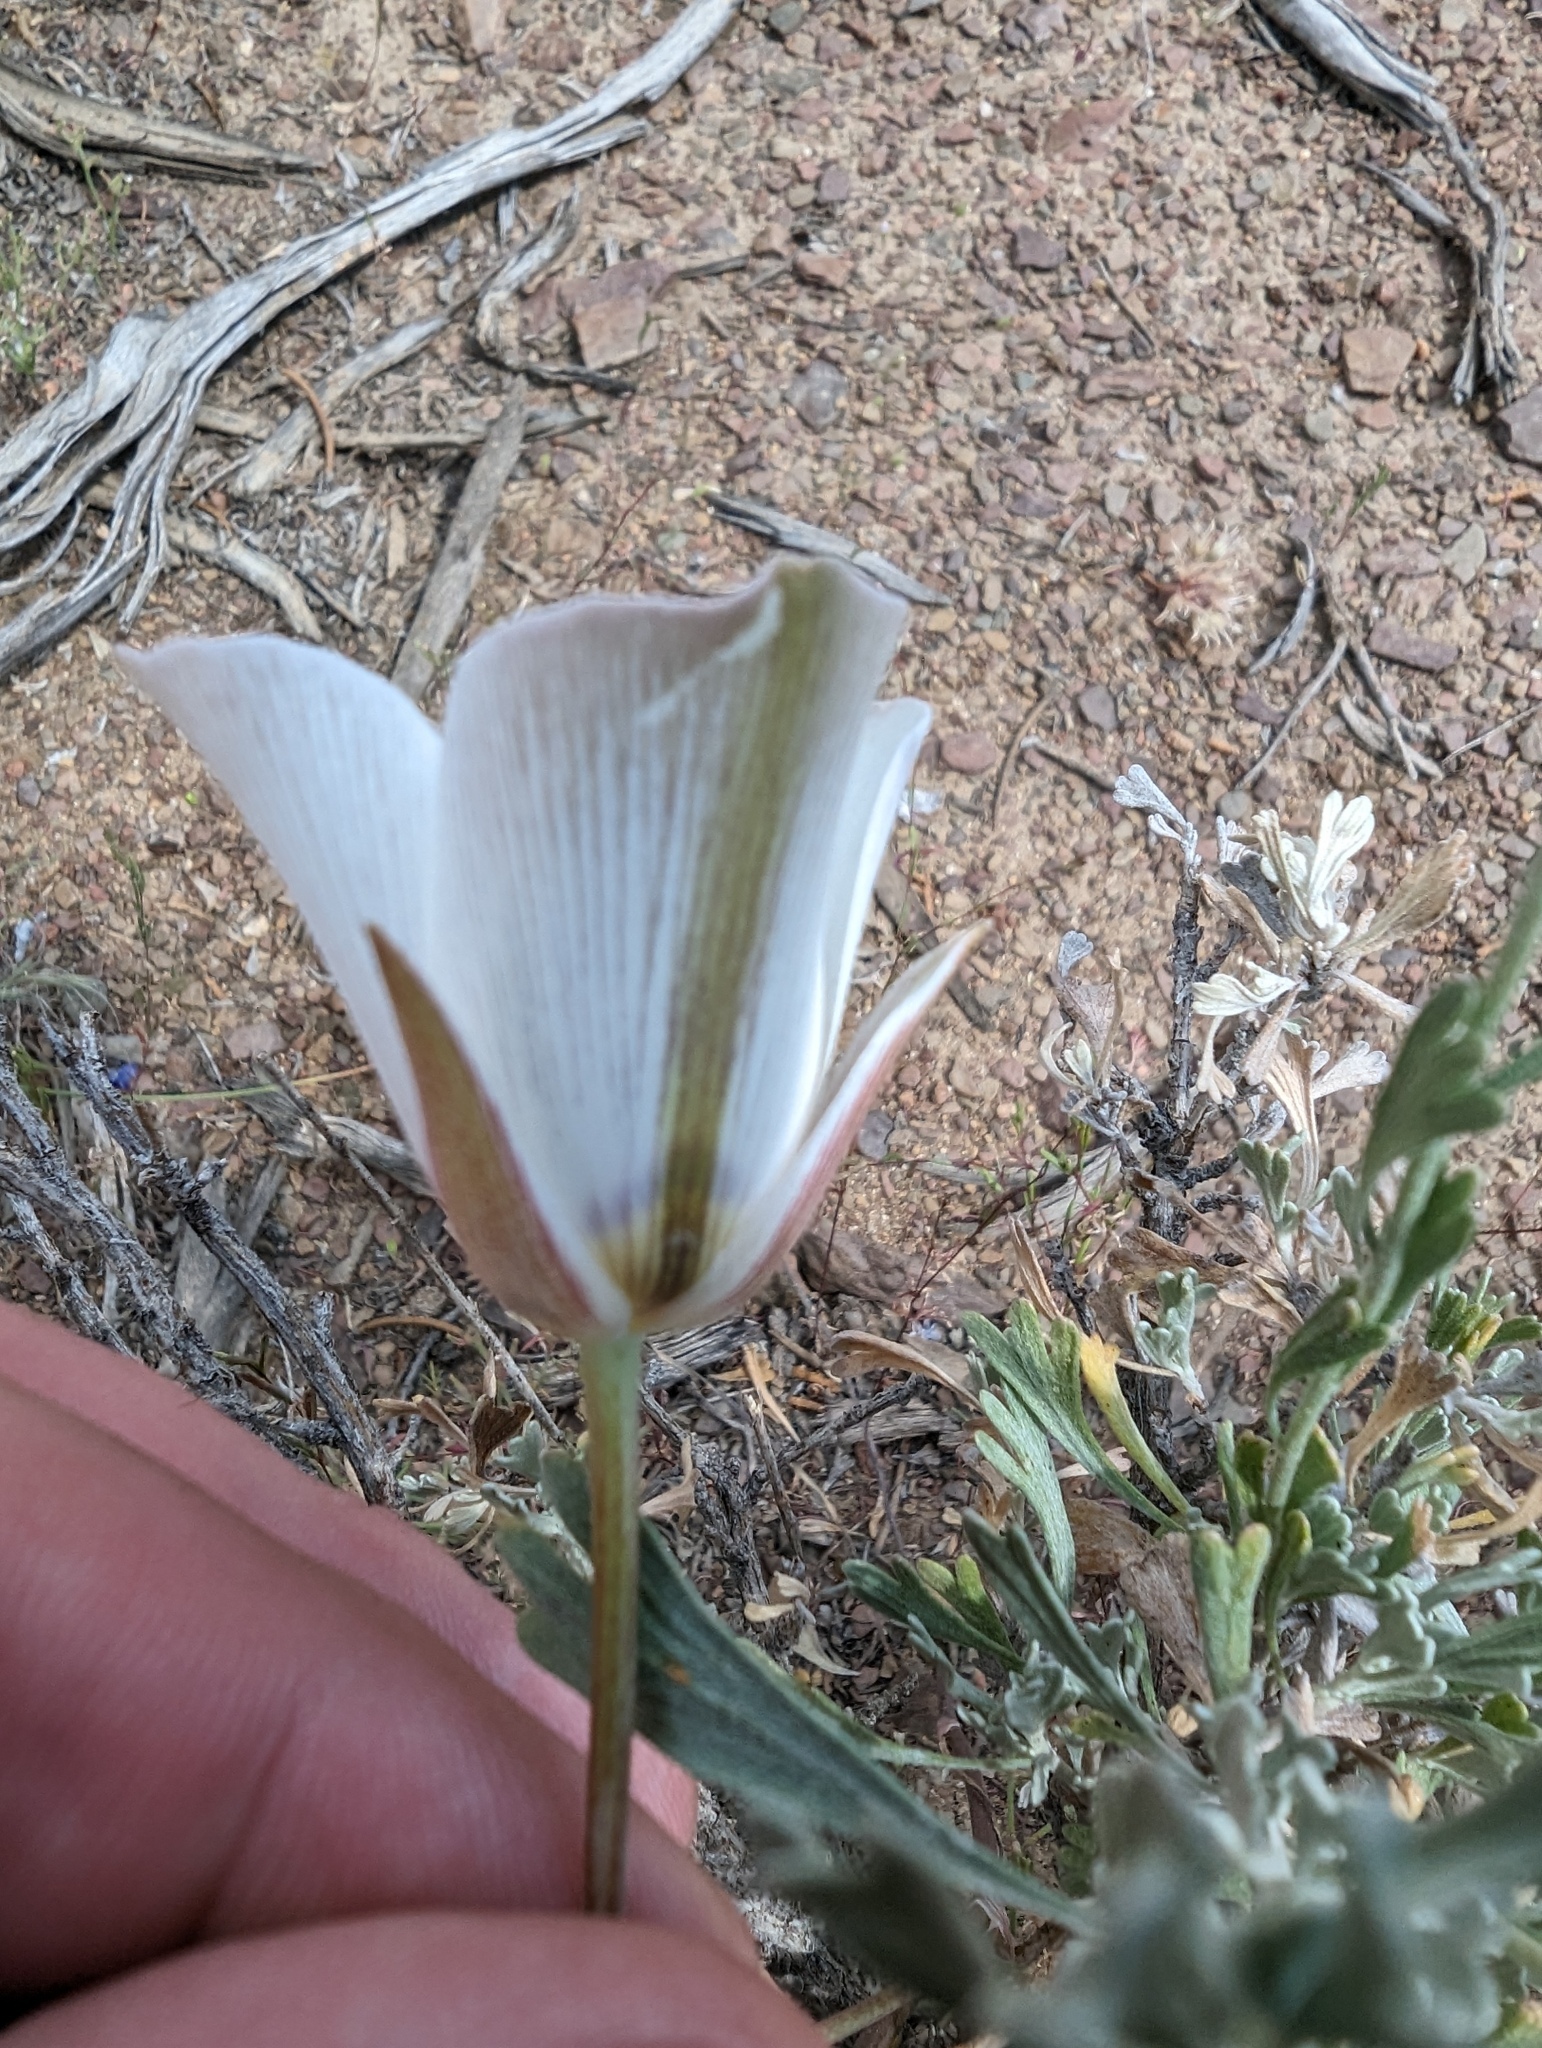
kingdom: Plantae
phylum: Tracheophyta
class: Liliopsida
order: Liliales
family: Liliaceae
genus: Calochortus
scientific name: Calochortus bruneaunis
